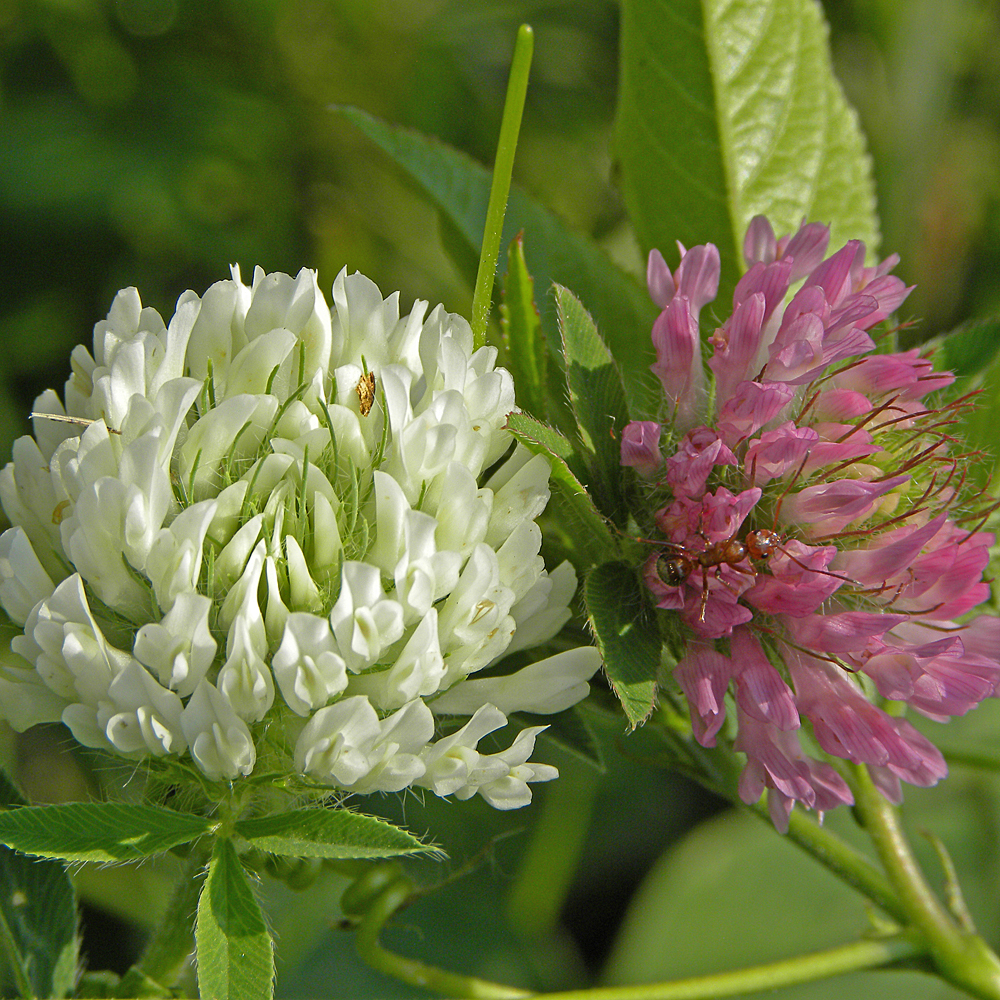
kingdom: Plantae
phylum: Tracheophyta
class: Magnoliopsida
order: Fabales
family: Fabaceae
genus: Trifolium
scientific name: Trifolium pratense
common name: Red clover
